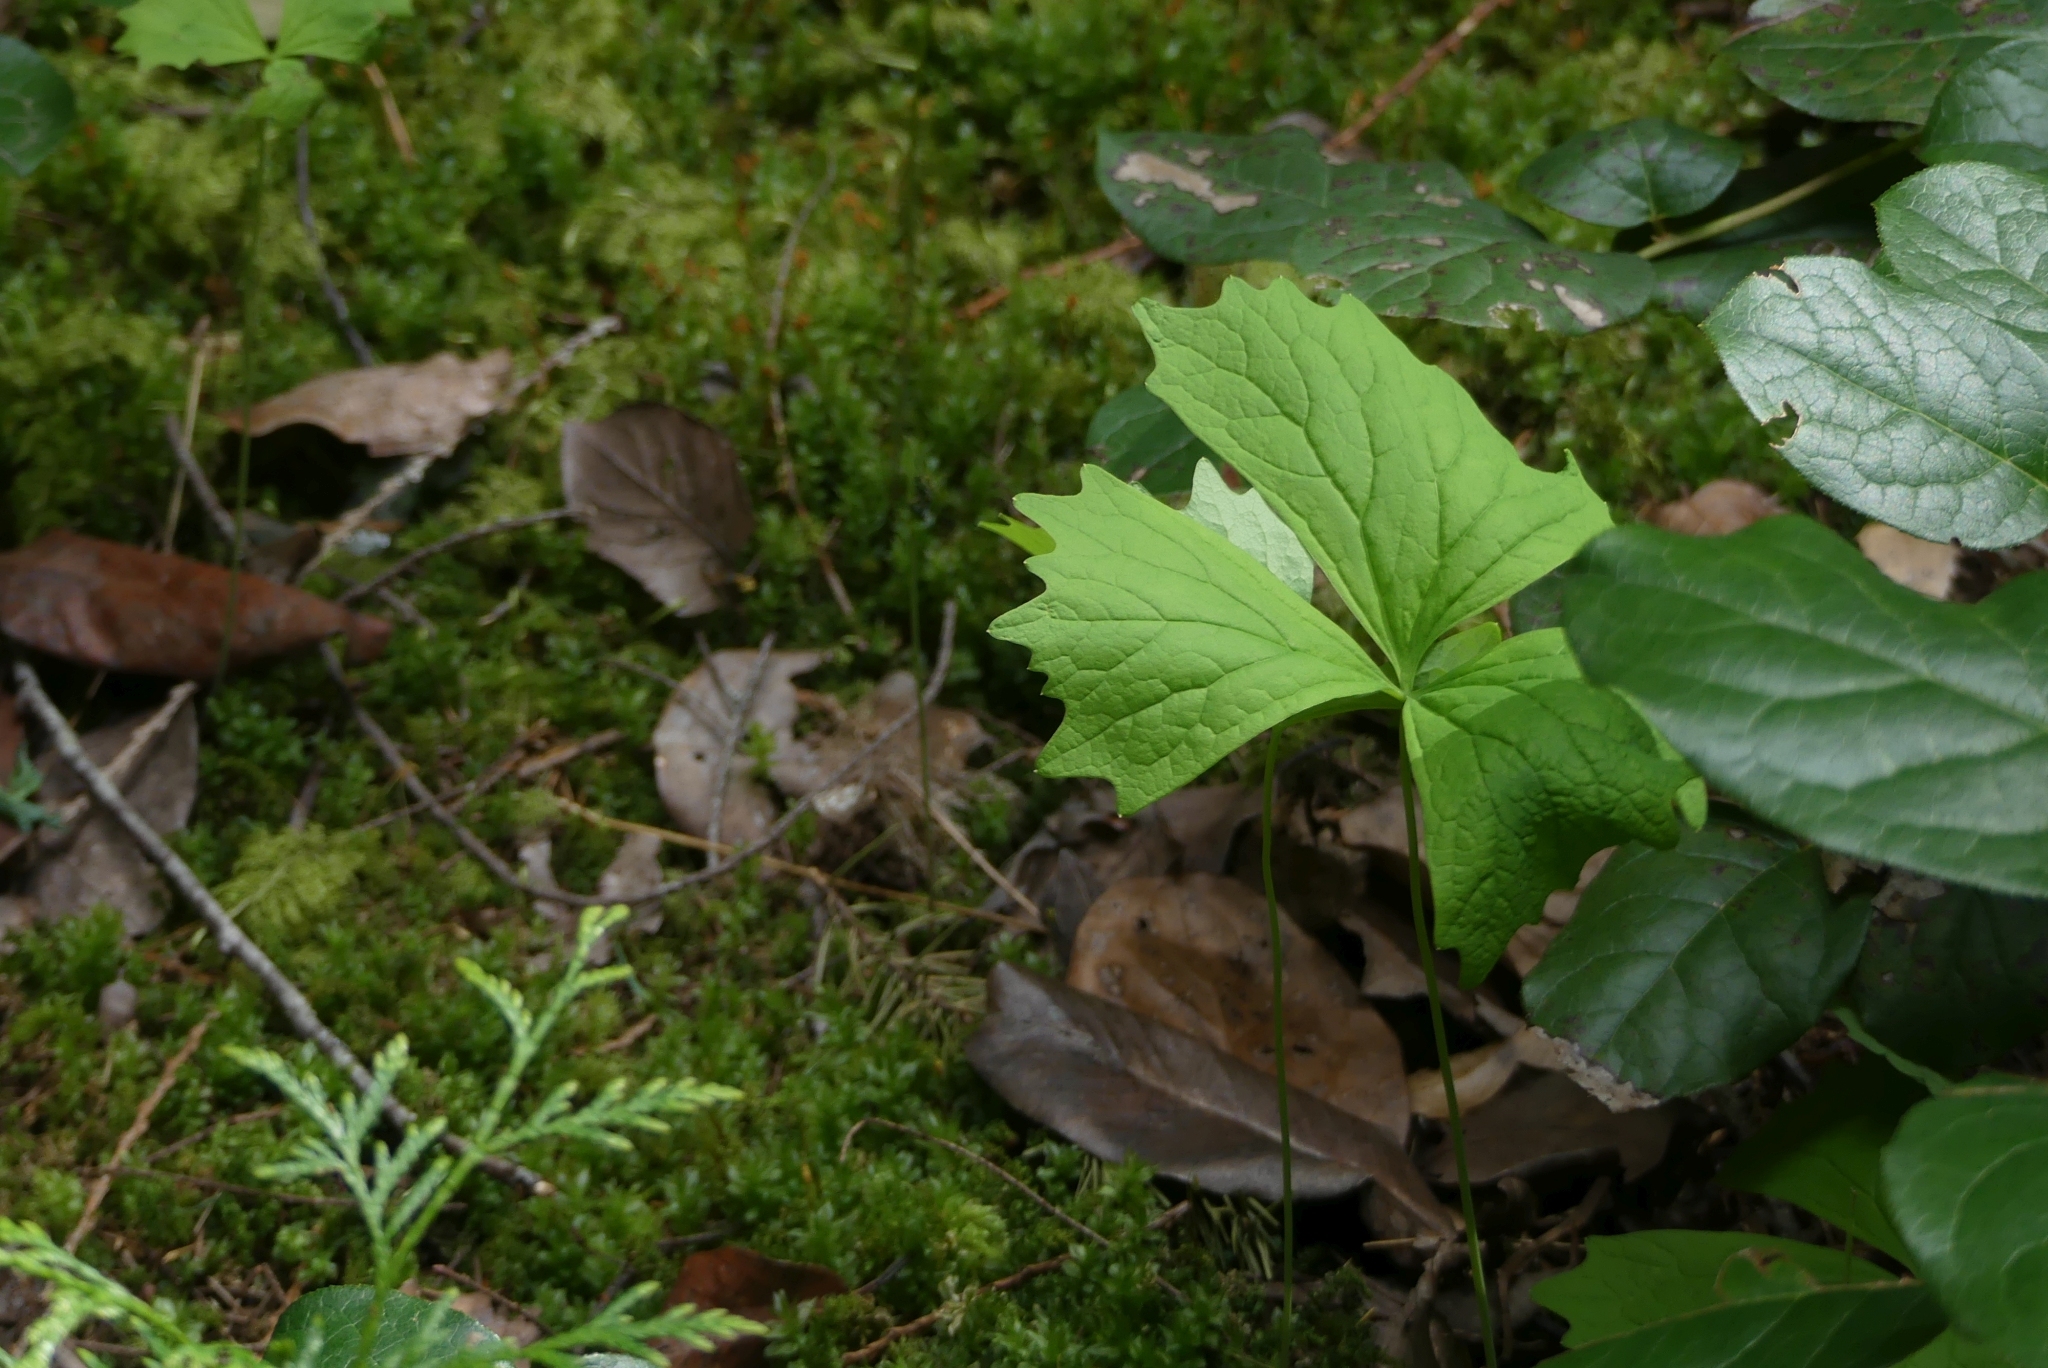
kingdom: Plantae
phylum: Tracheophyta
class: Magnoliopsida
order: Ranunculales
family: Berberidaceae
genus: Achlys
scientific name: Achlys triphylla
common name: Vanilla-leaf
